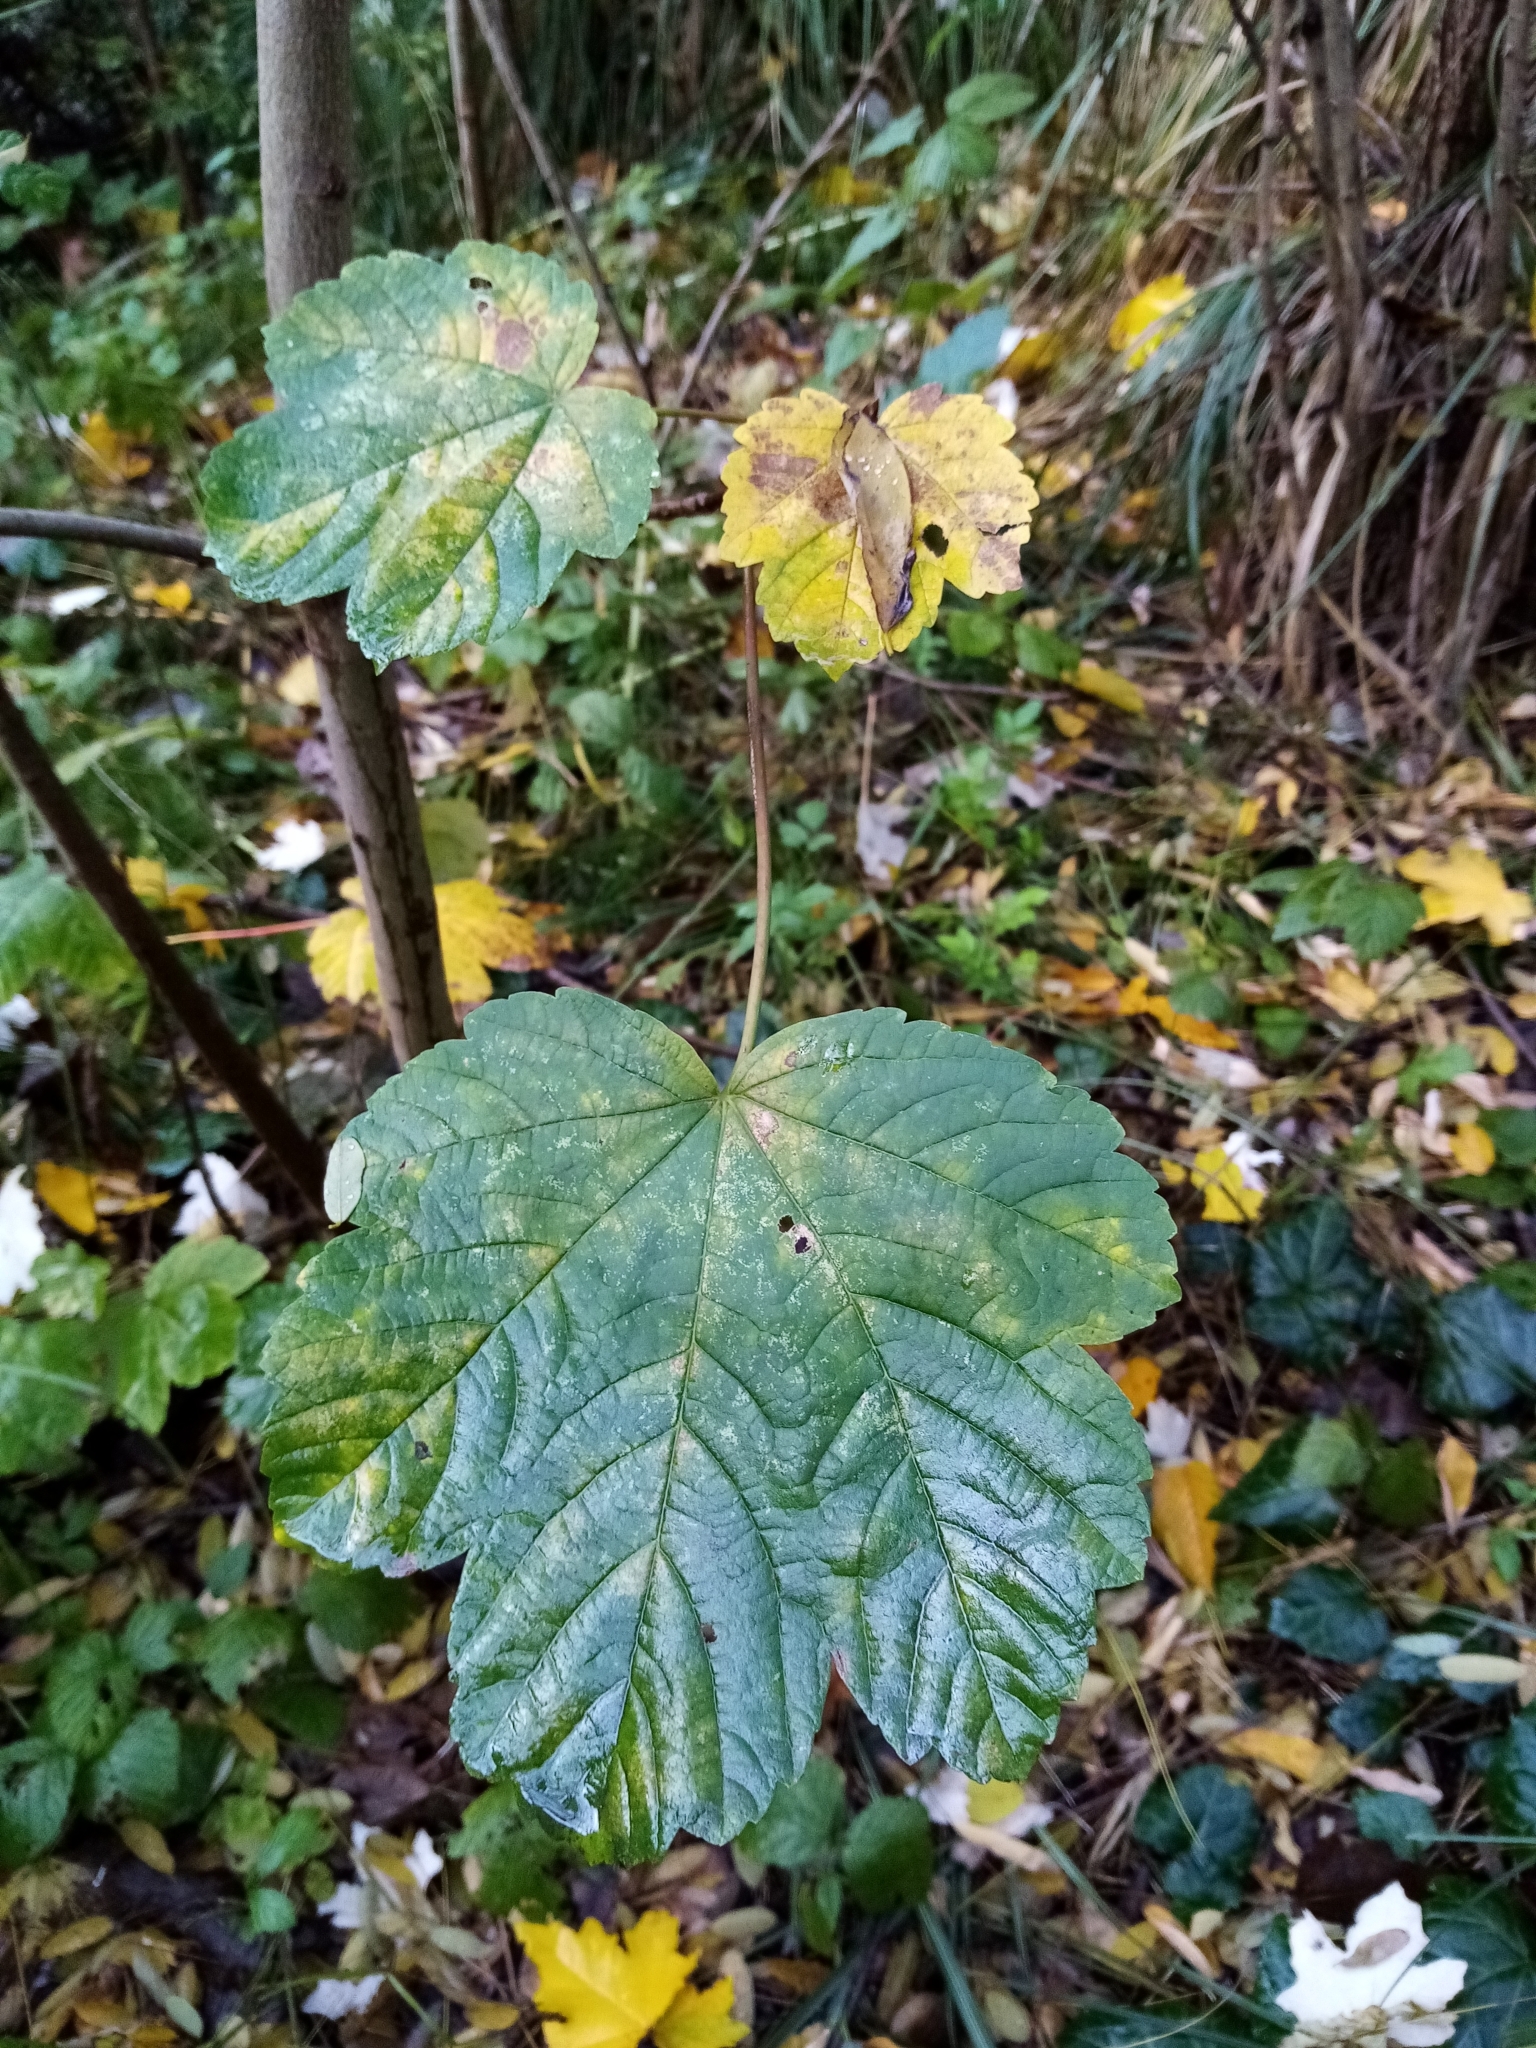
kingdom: Plantae
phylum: Tracheophyta
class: Magnoliopsida
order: Sapindales
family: Sapindaceae
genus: Acer
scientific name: Acer pseudoplatanus
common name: Sycamore
